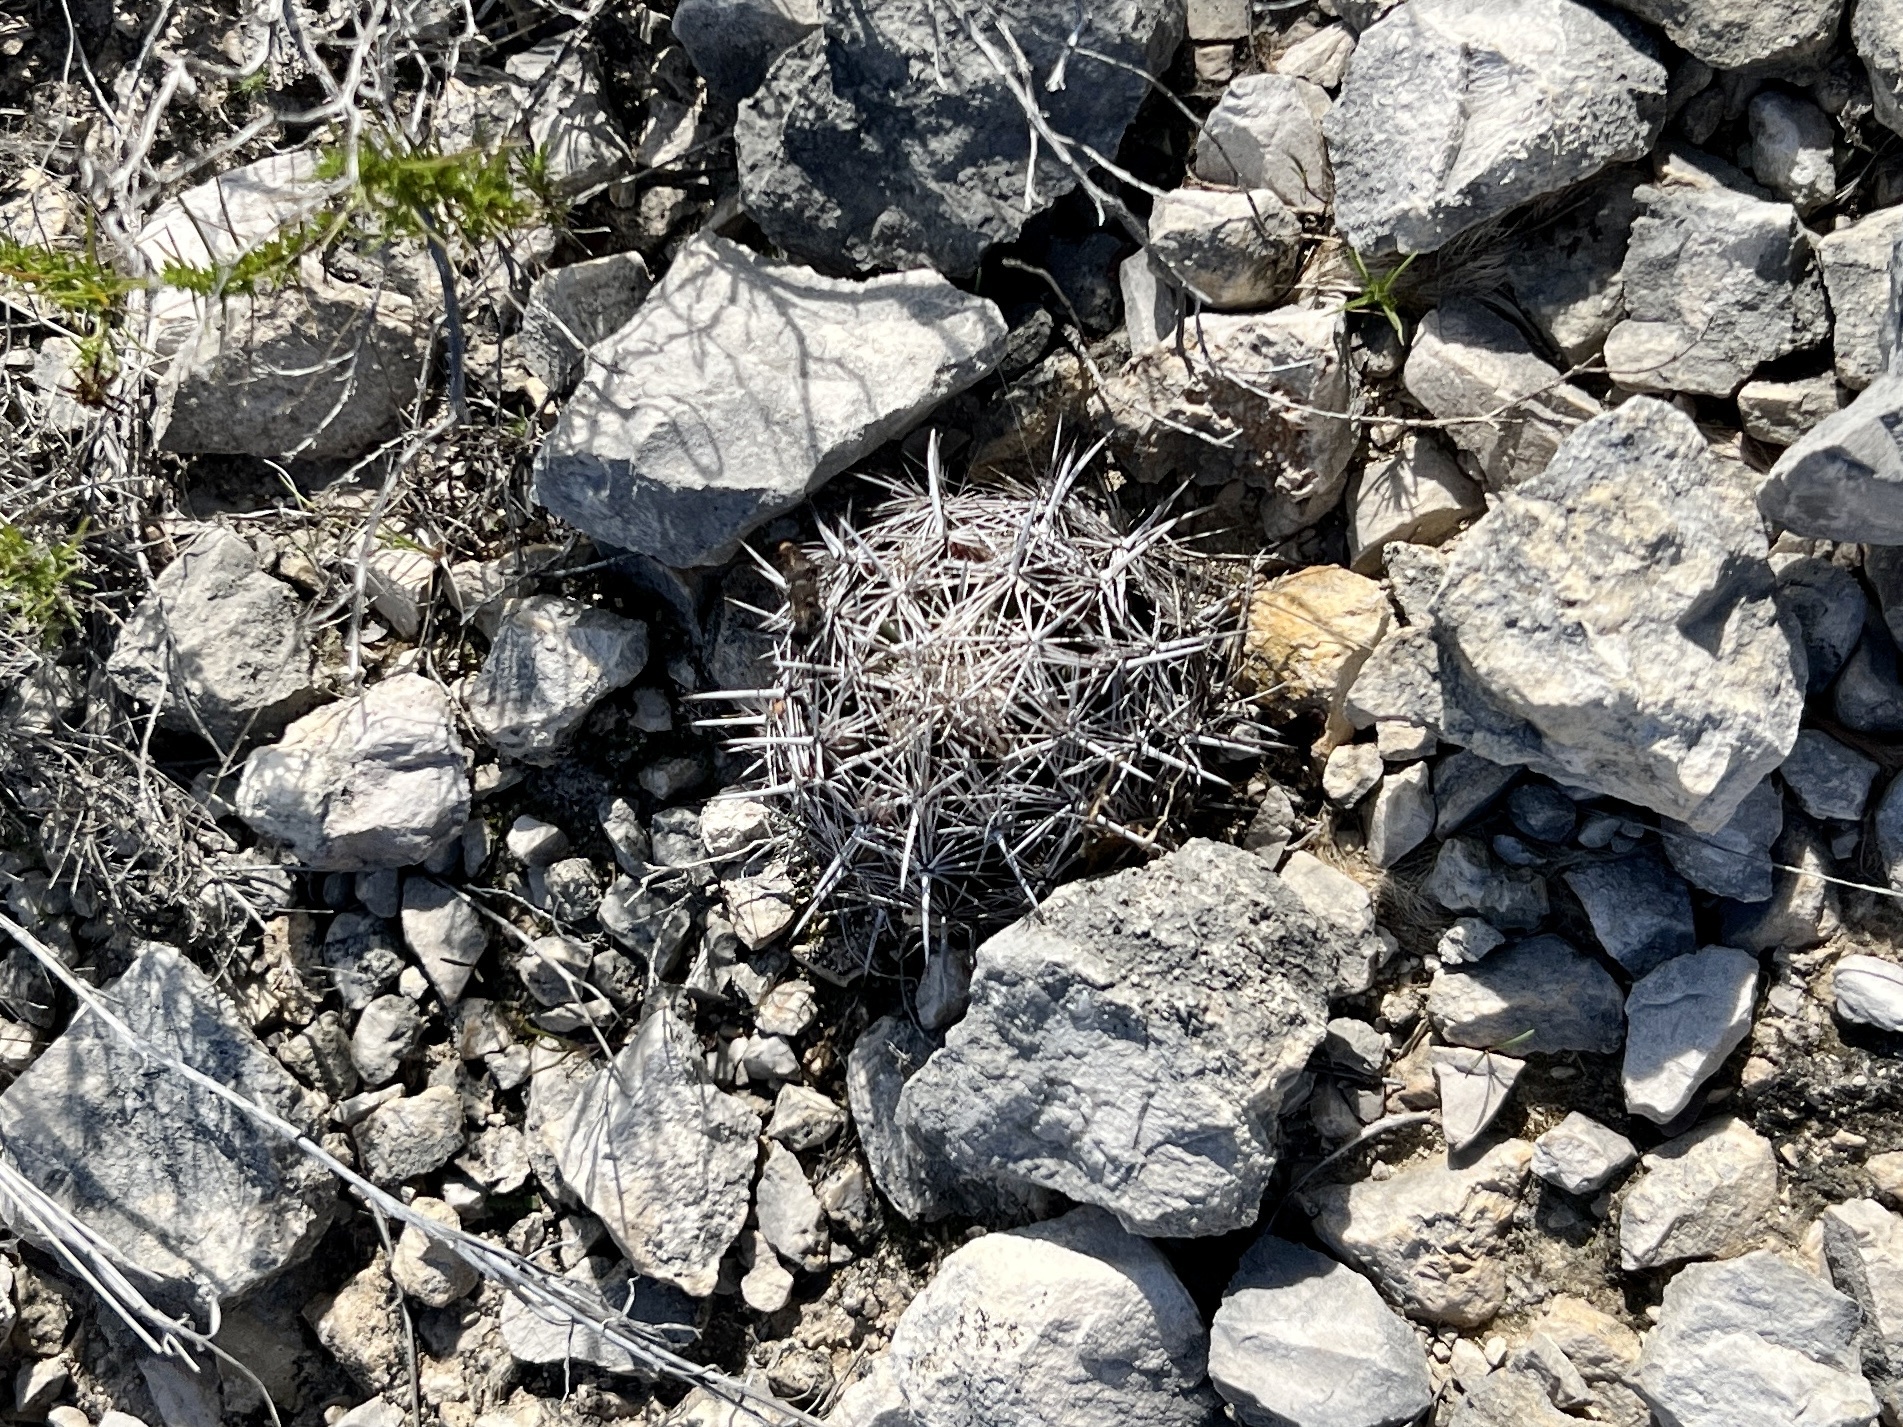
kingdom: Plantae
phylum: Tracheophyta
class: Magnoliopsida
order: Caryophyllales
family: Cactaceae
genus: Coryphantha
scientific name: Coryphantha echinus
